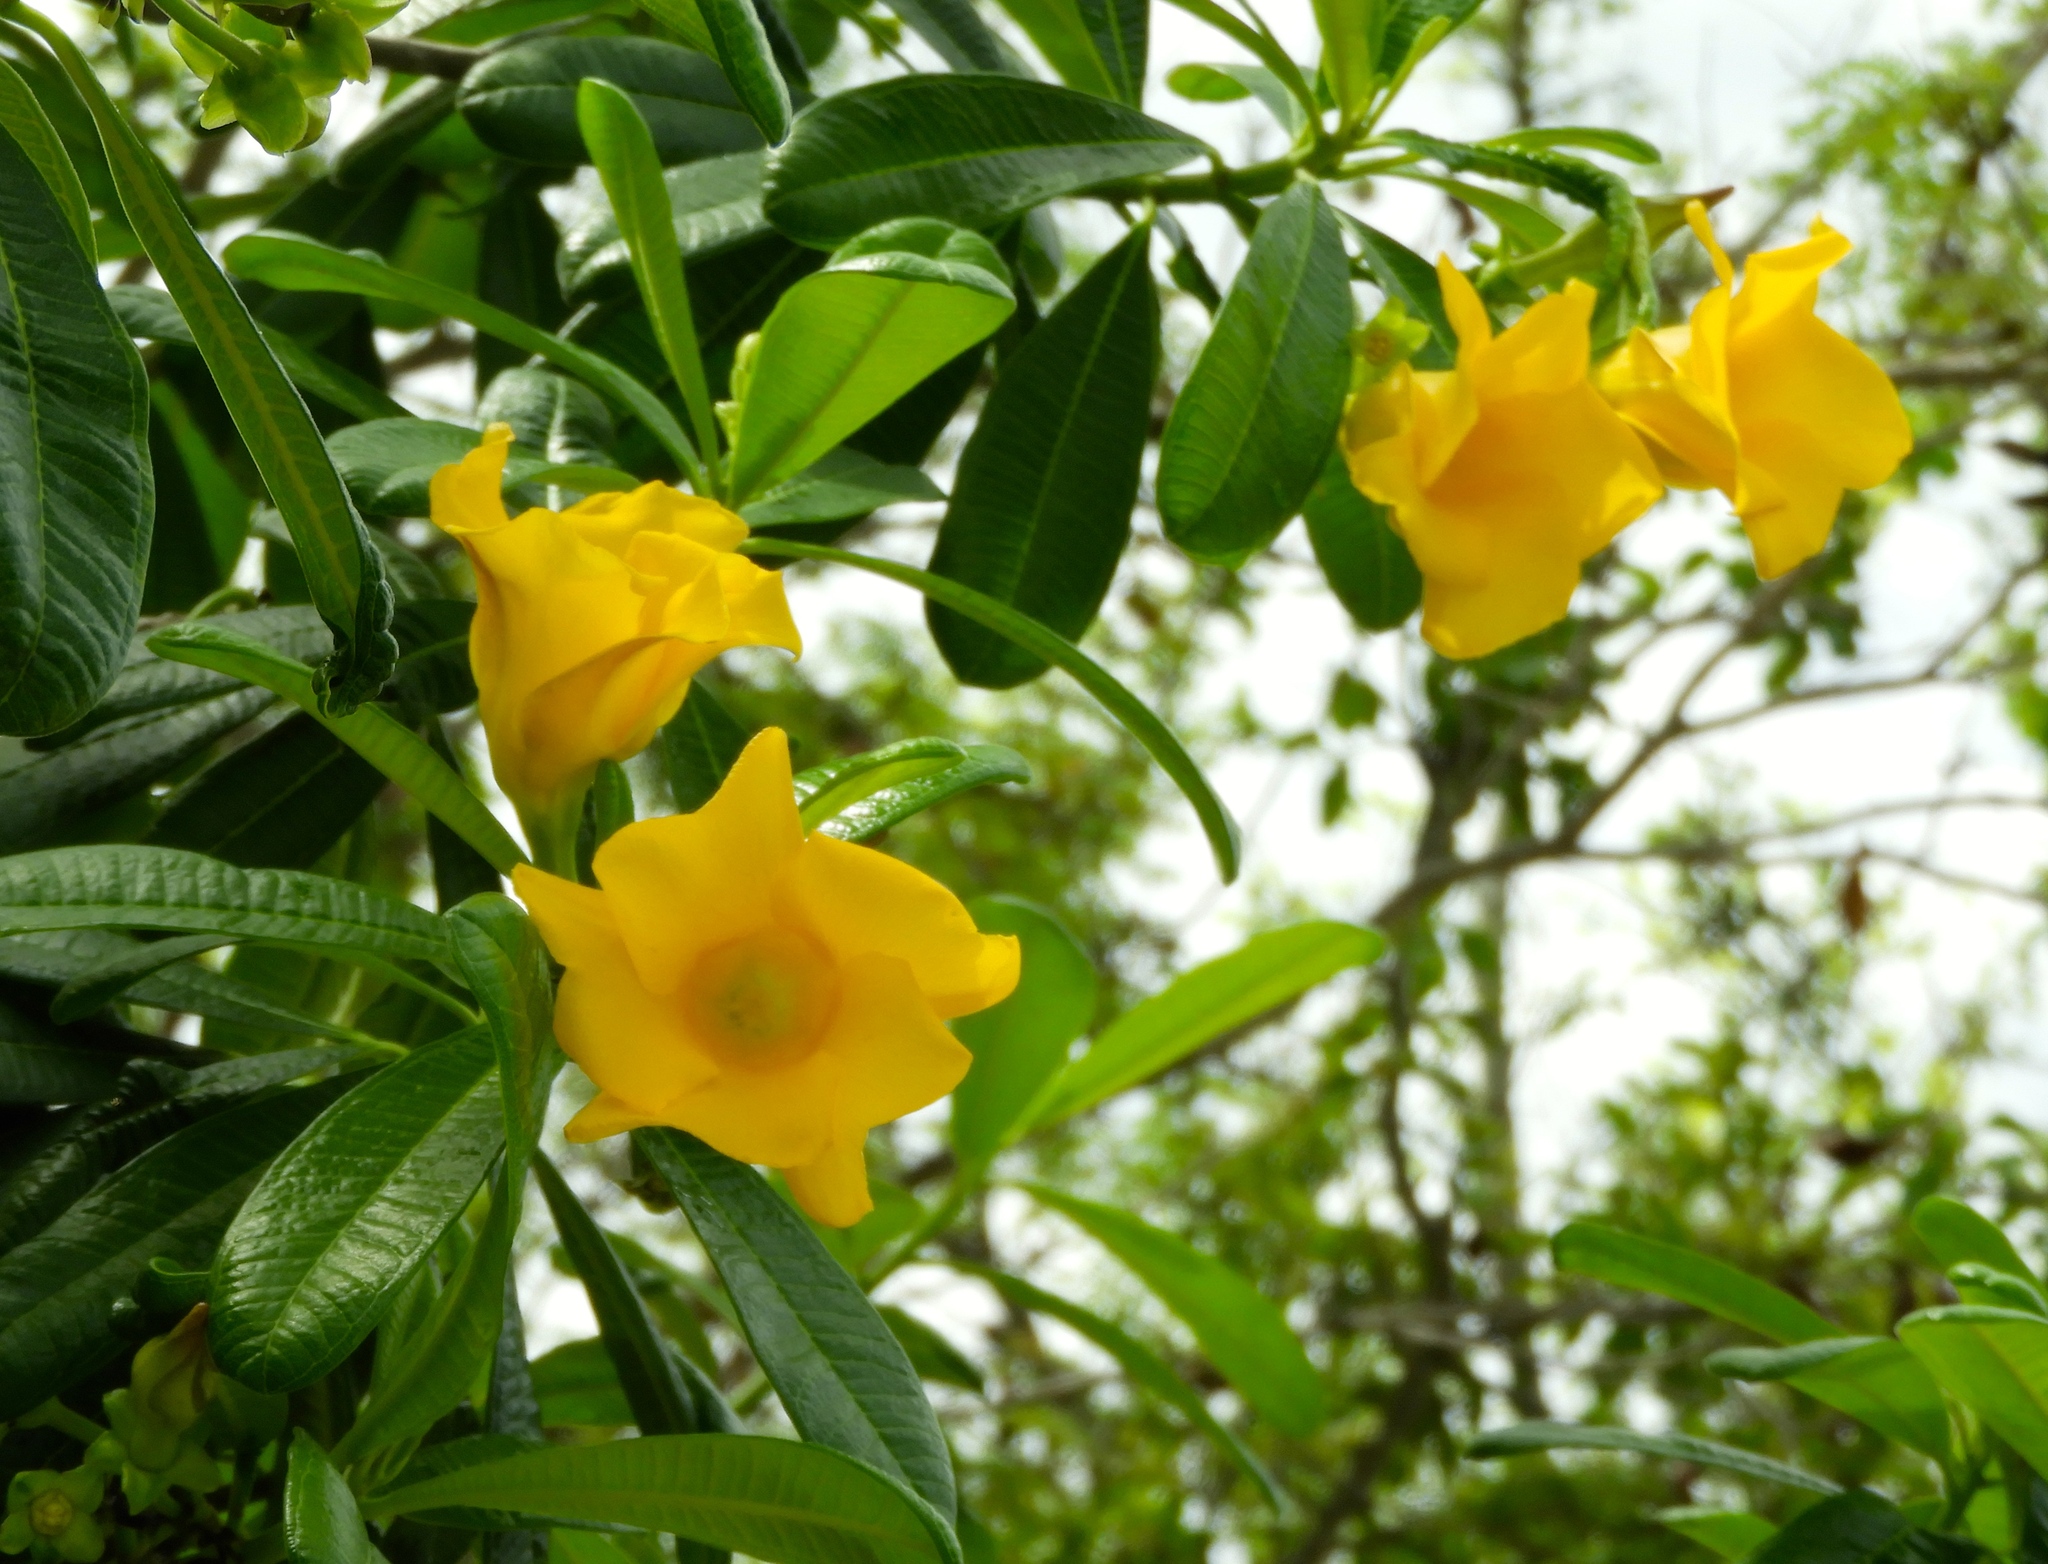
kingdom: Plantae
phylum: Tracheophyta
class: Magnoliopsida
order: Gentianales
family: Apocynaceae
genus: Cascabela
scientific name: Cascabela ovata
